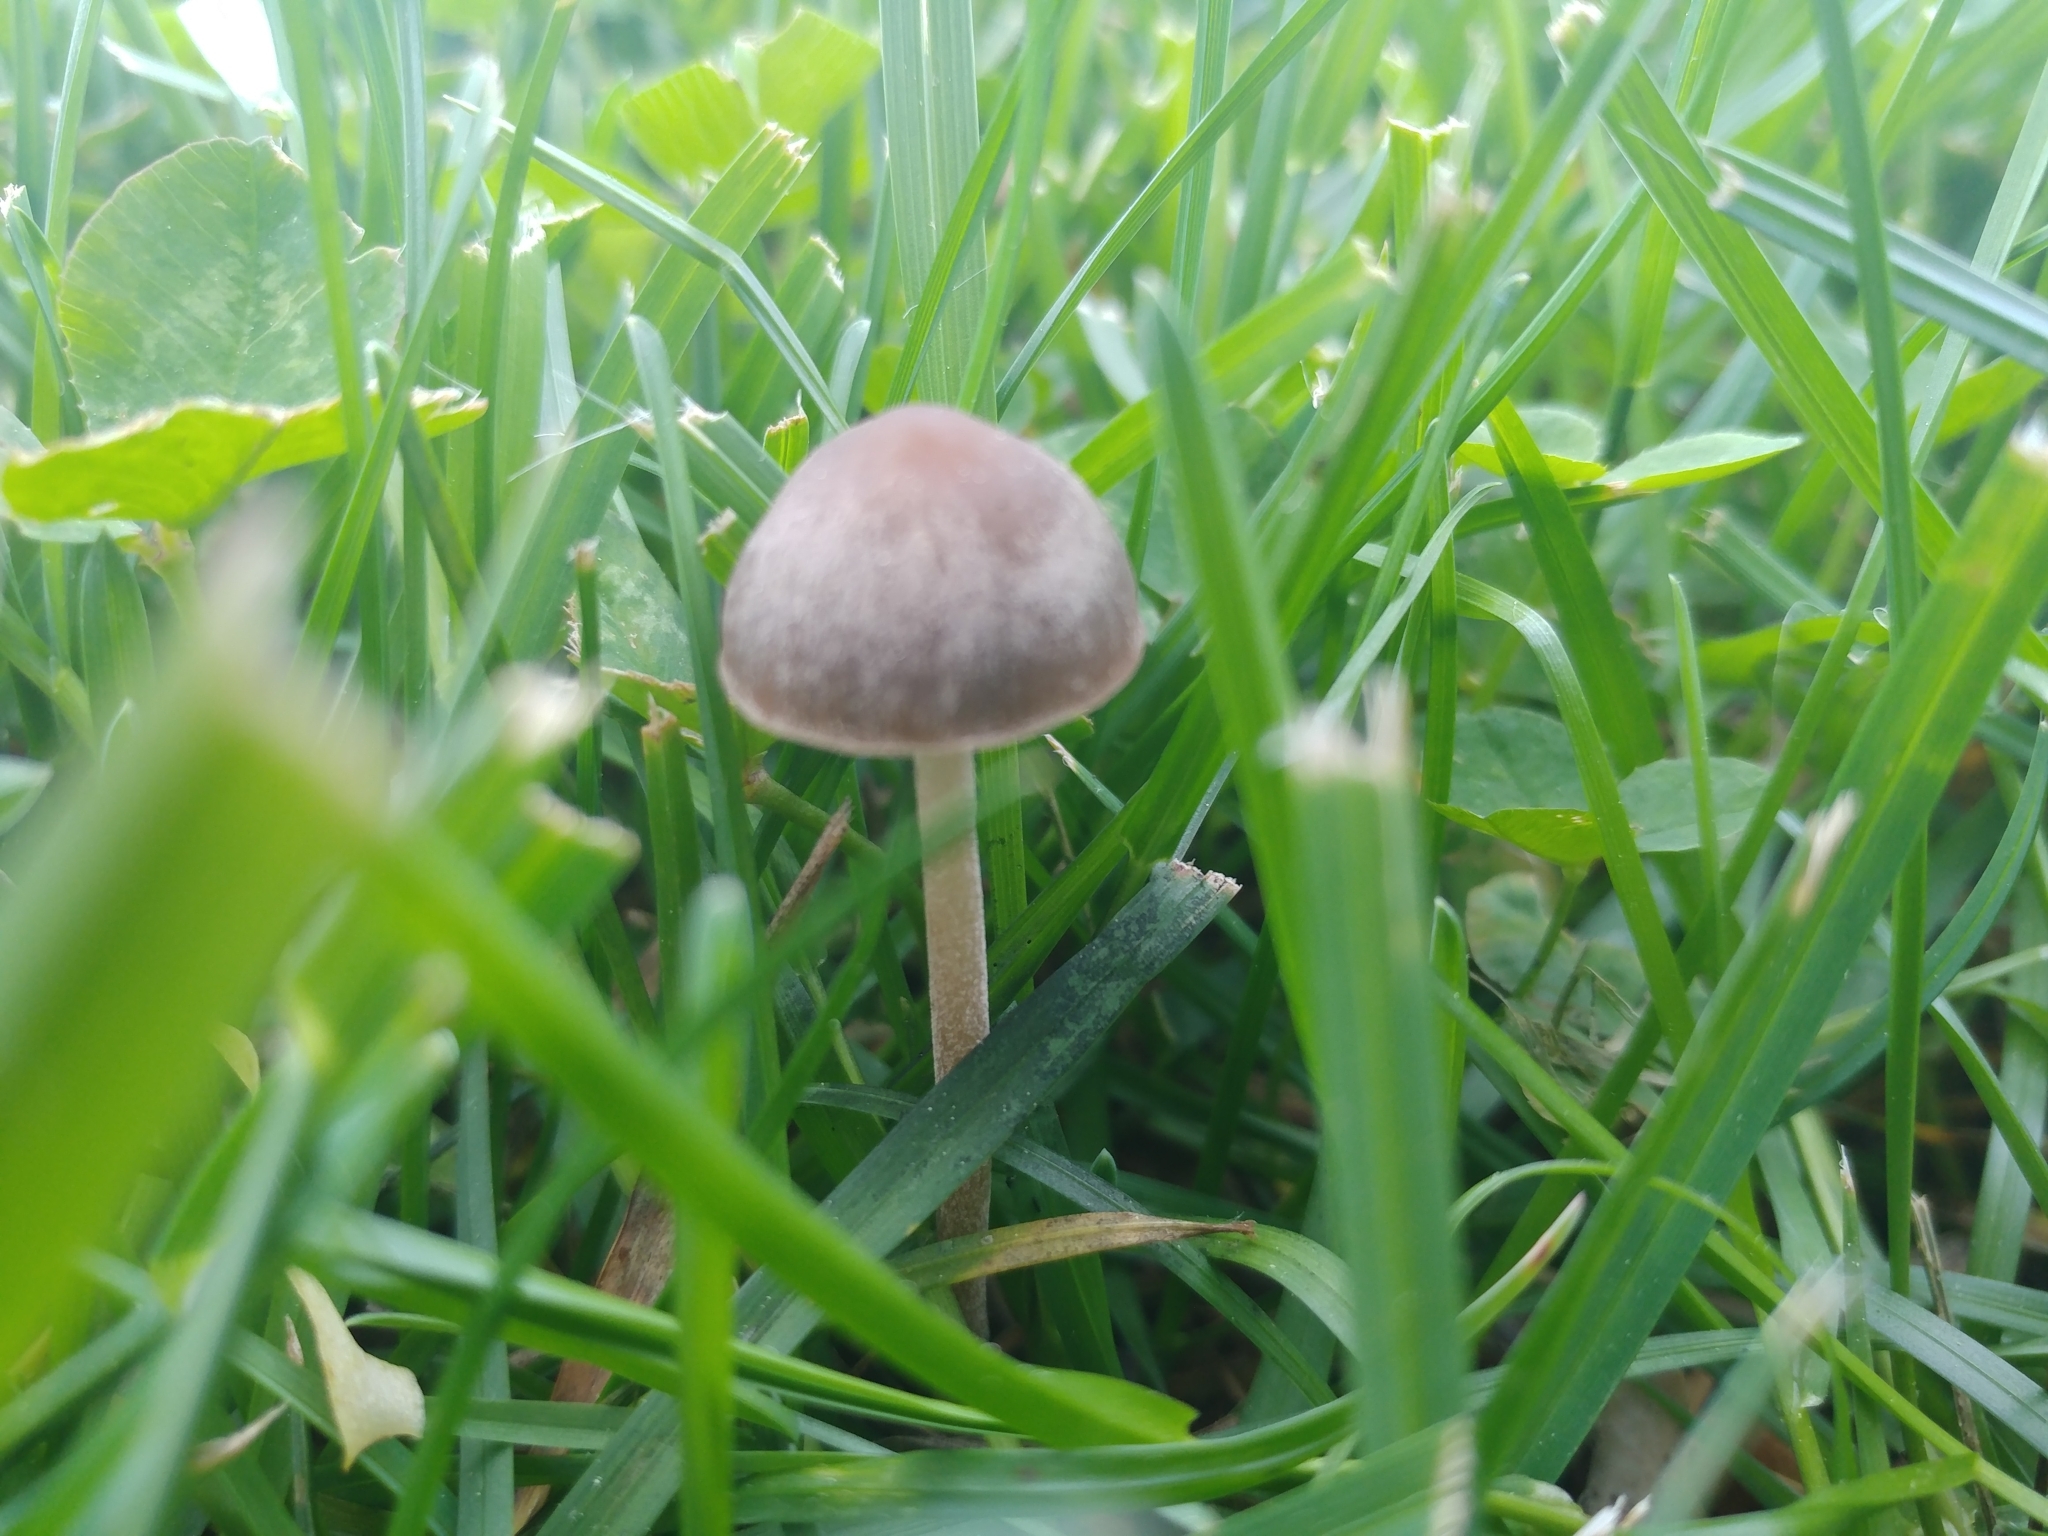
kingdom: Fungi
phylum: Basidiomycota
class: Agaricomycetes
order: Agaricales
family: Bolbitiaceae
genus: Panaeolina
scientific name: Panaeolina foenisecii
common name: Brown hay cap
